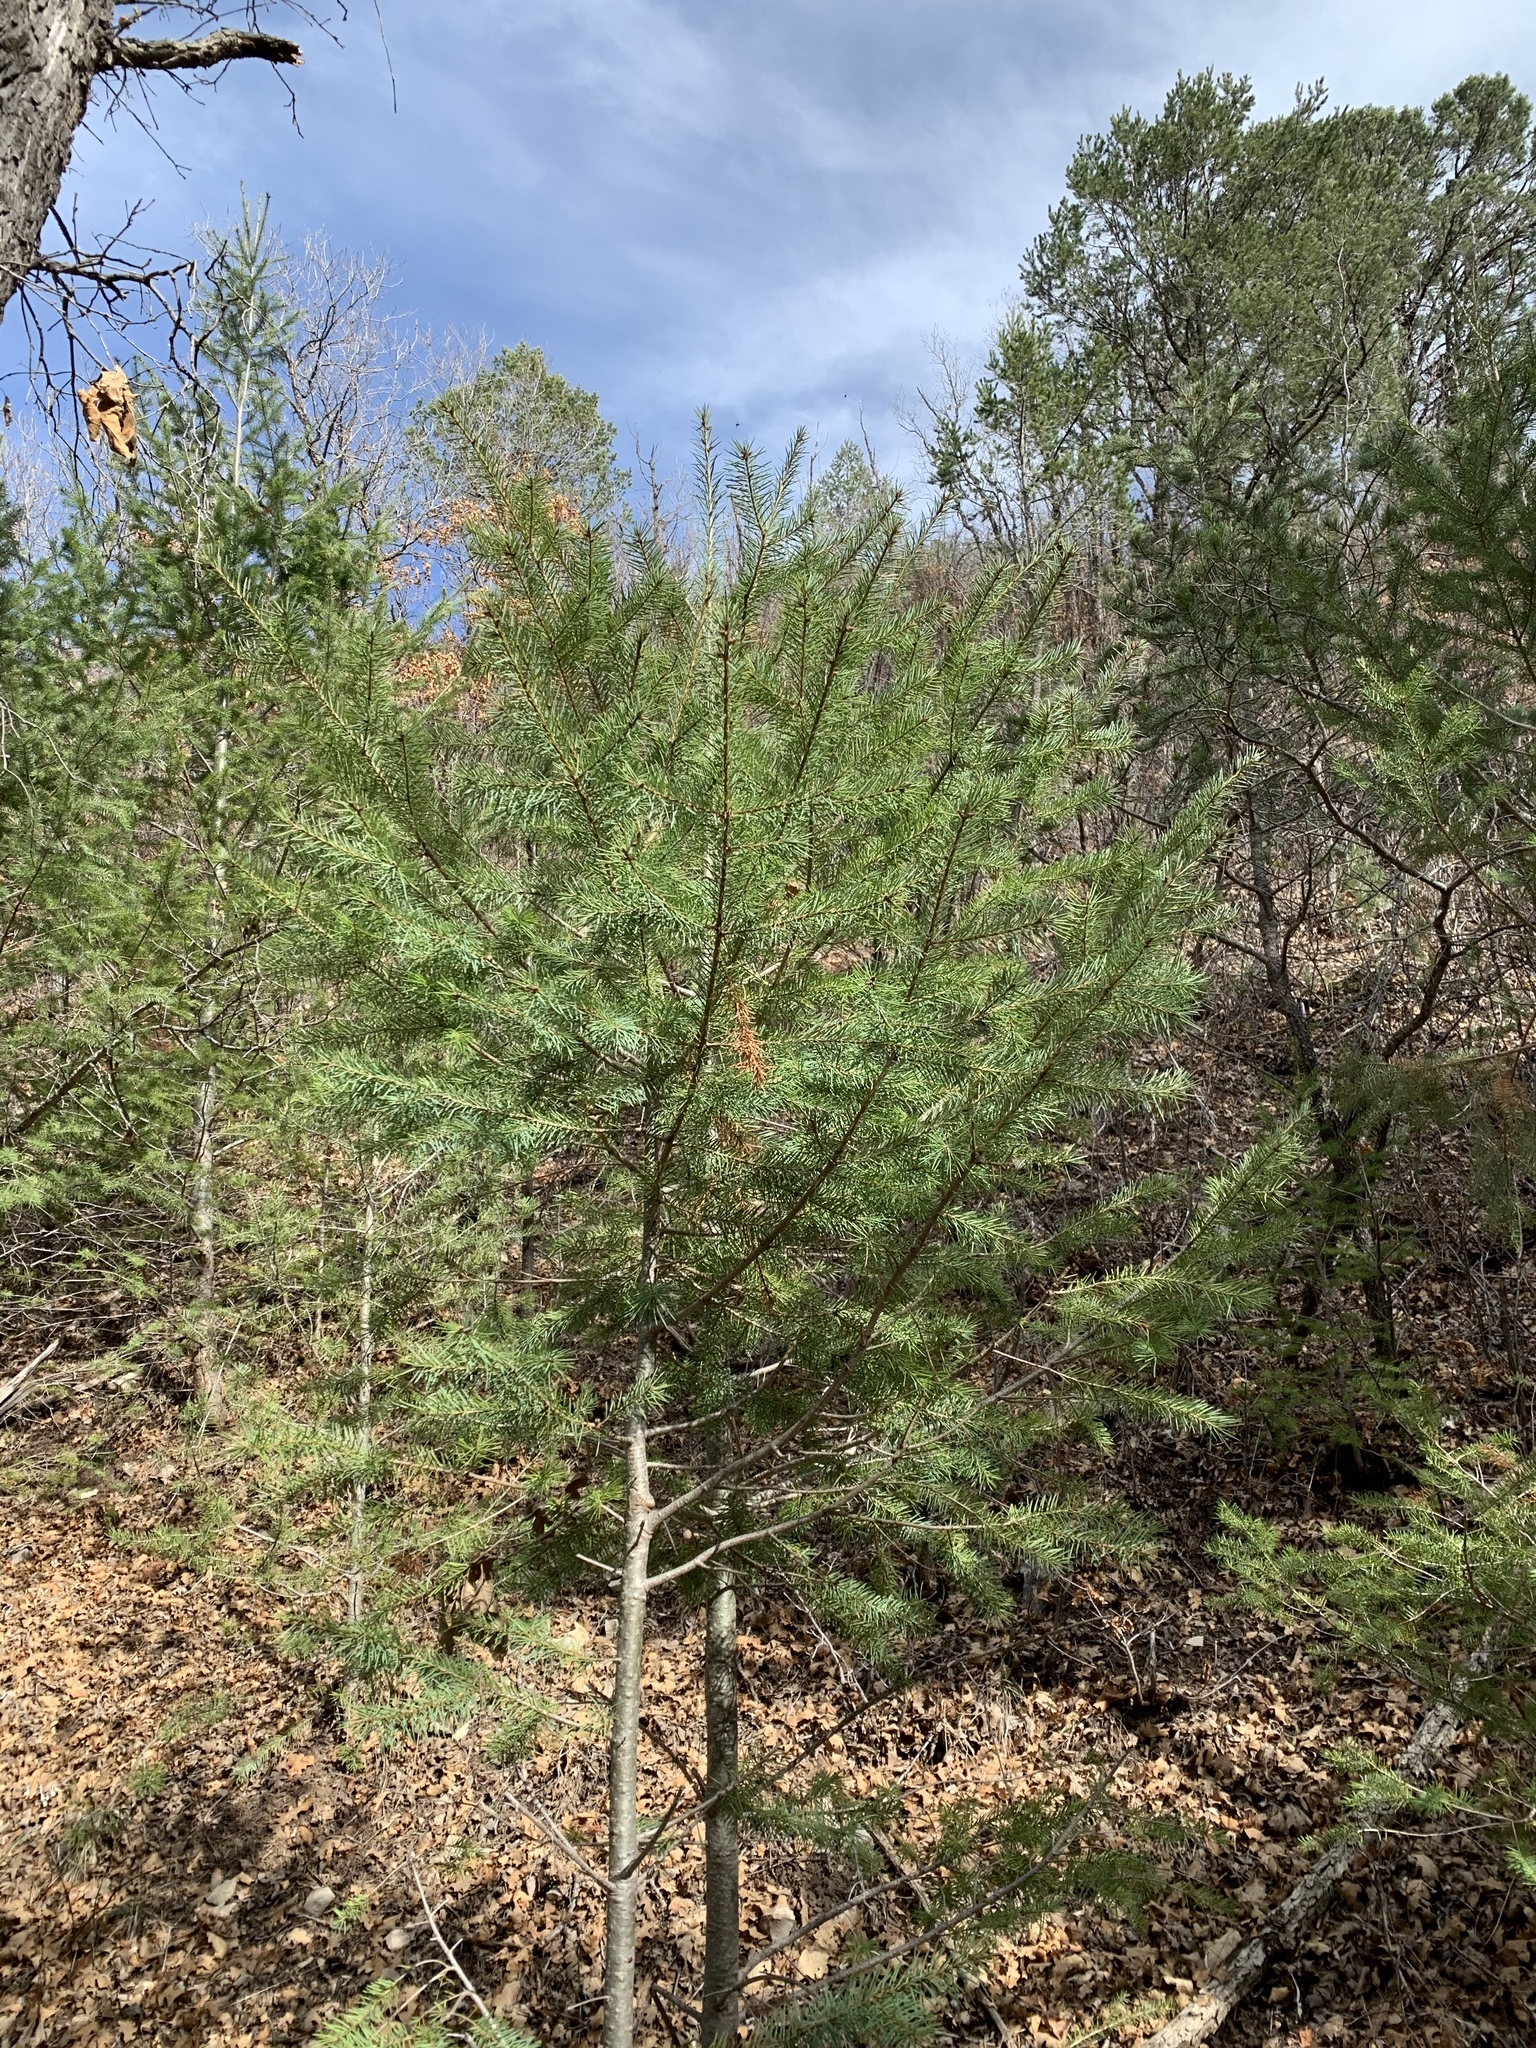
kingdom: Plantae
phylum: Tracheophyta
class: Pinopsida
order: Pinales
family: Pinaceae
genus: Pseudotsuga
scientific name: Pseudotsuga menziesii
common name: Douglas fir
